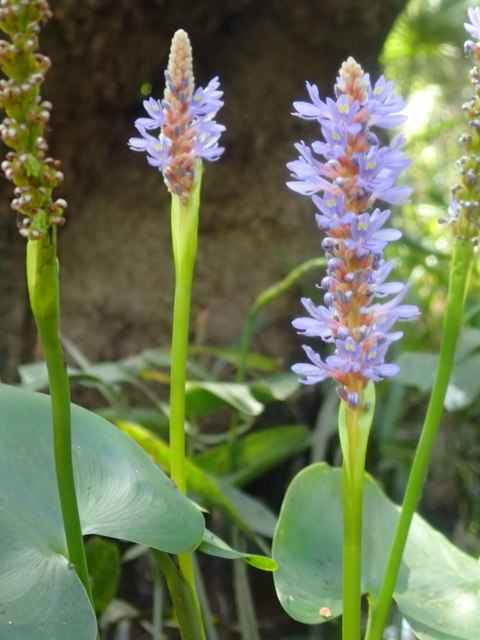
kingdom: Plantae
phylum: Tracheophyta
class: Liliopsida
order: Commelinales
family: Pontederiaceae
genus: Pontederia
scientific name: Pontederia cordata
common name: Pickerelweed
